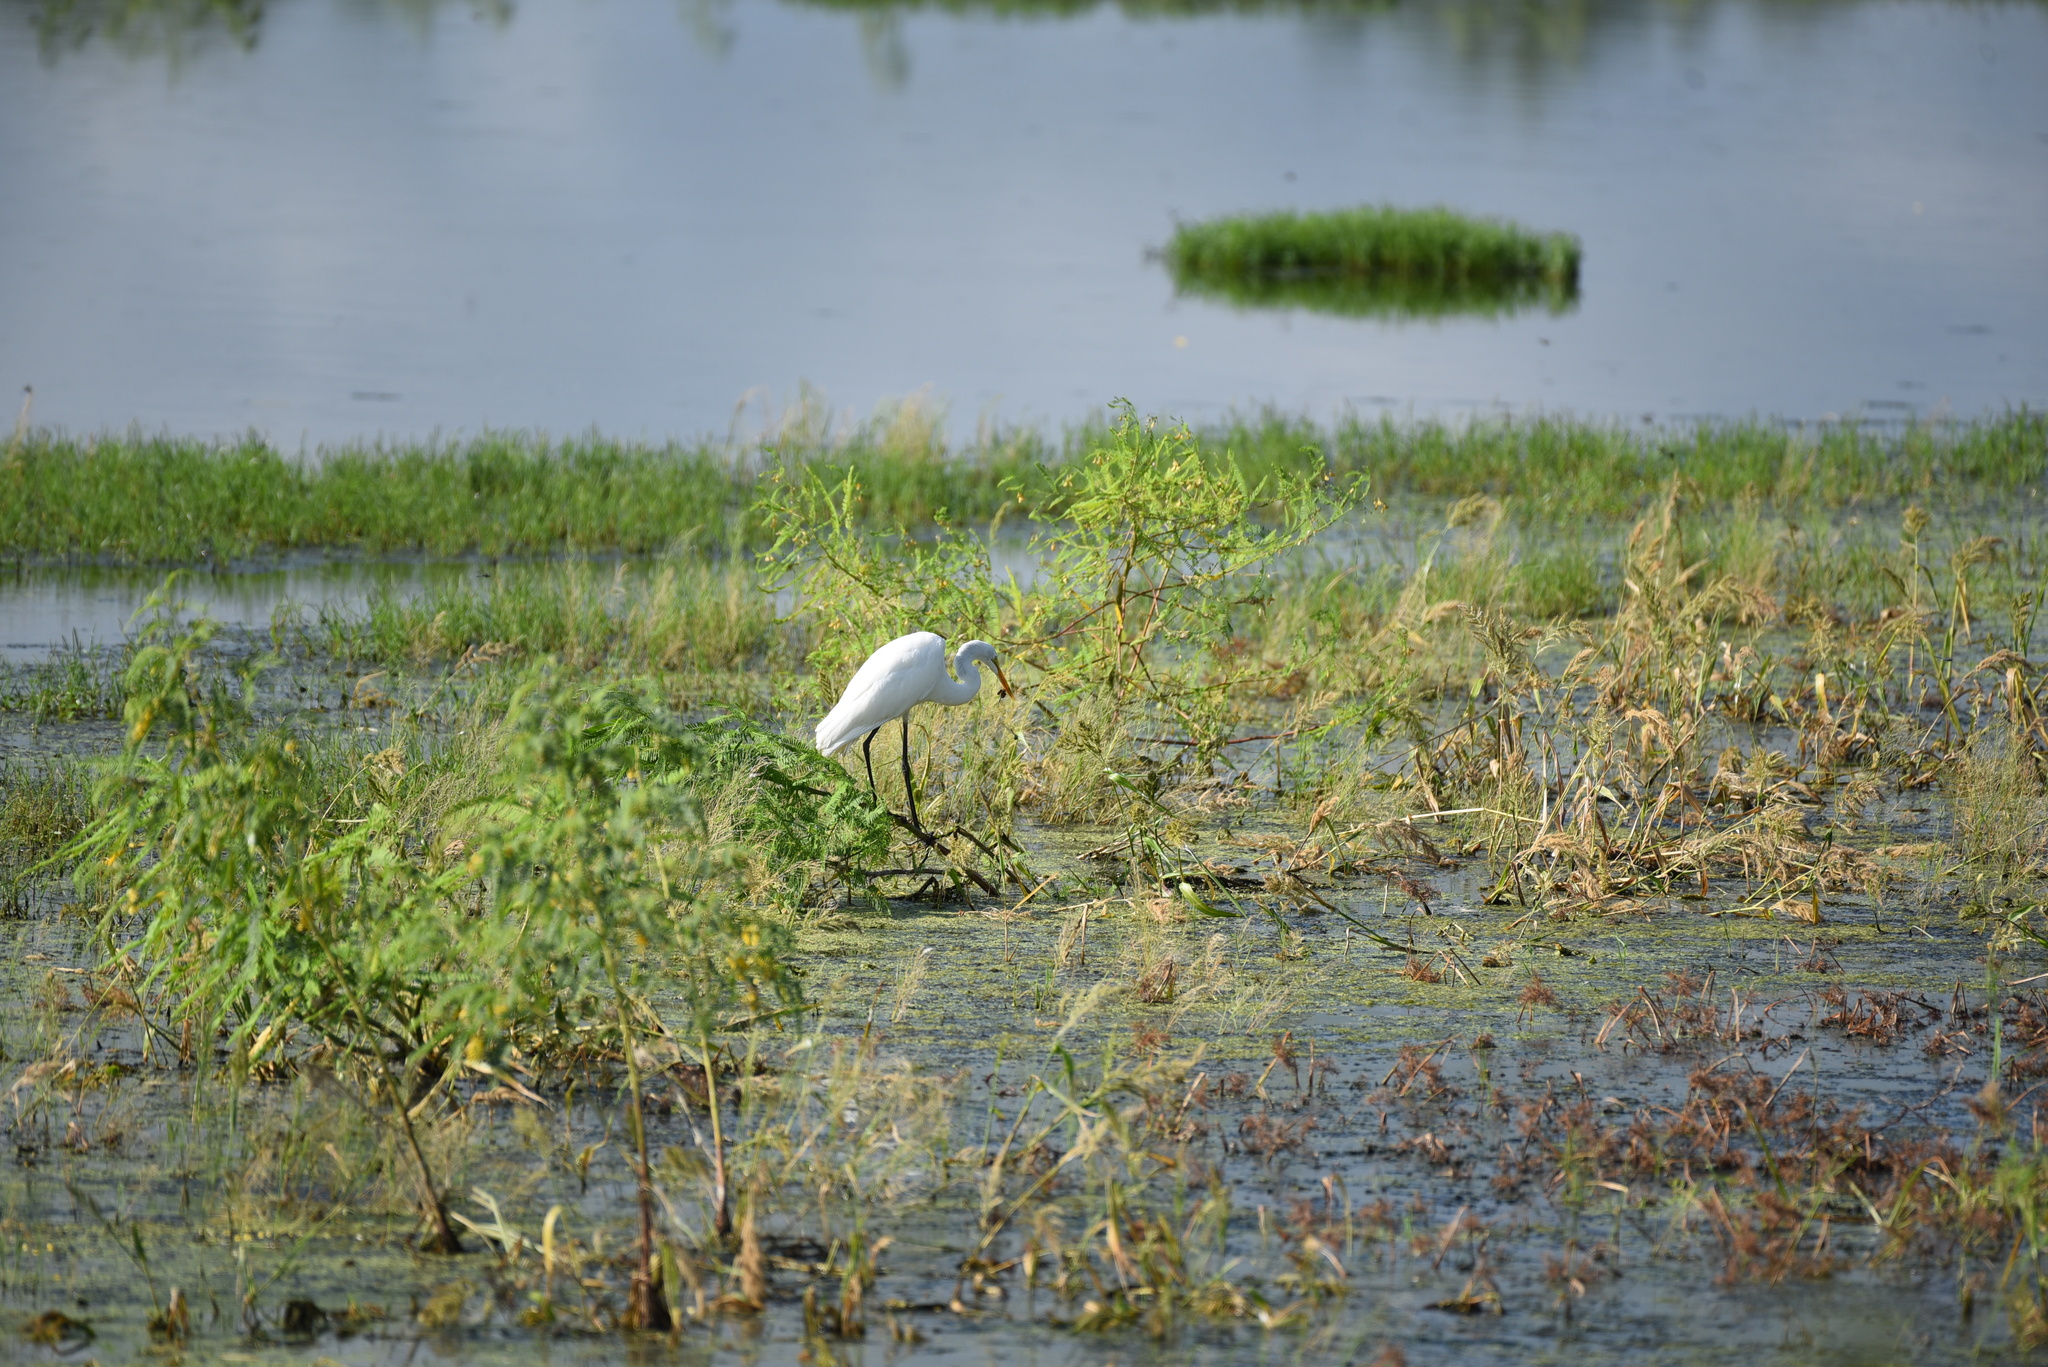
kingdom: Animalia
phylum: Chordata
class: Aves
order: Pelecaniformes
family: Ardeidae
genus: Ardea
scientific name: Ardea alba
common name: Great egret
